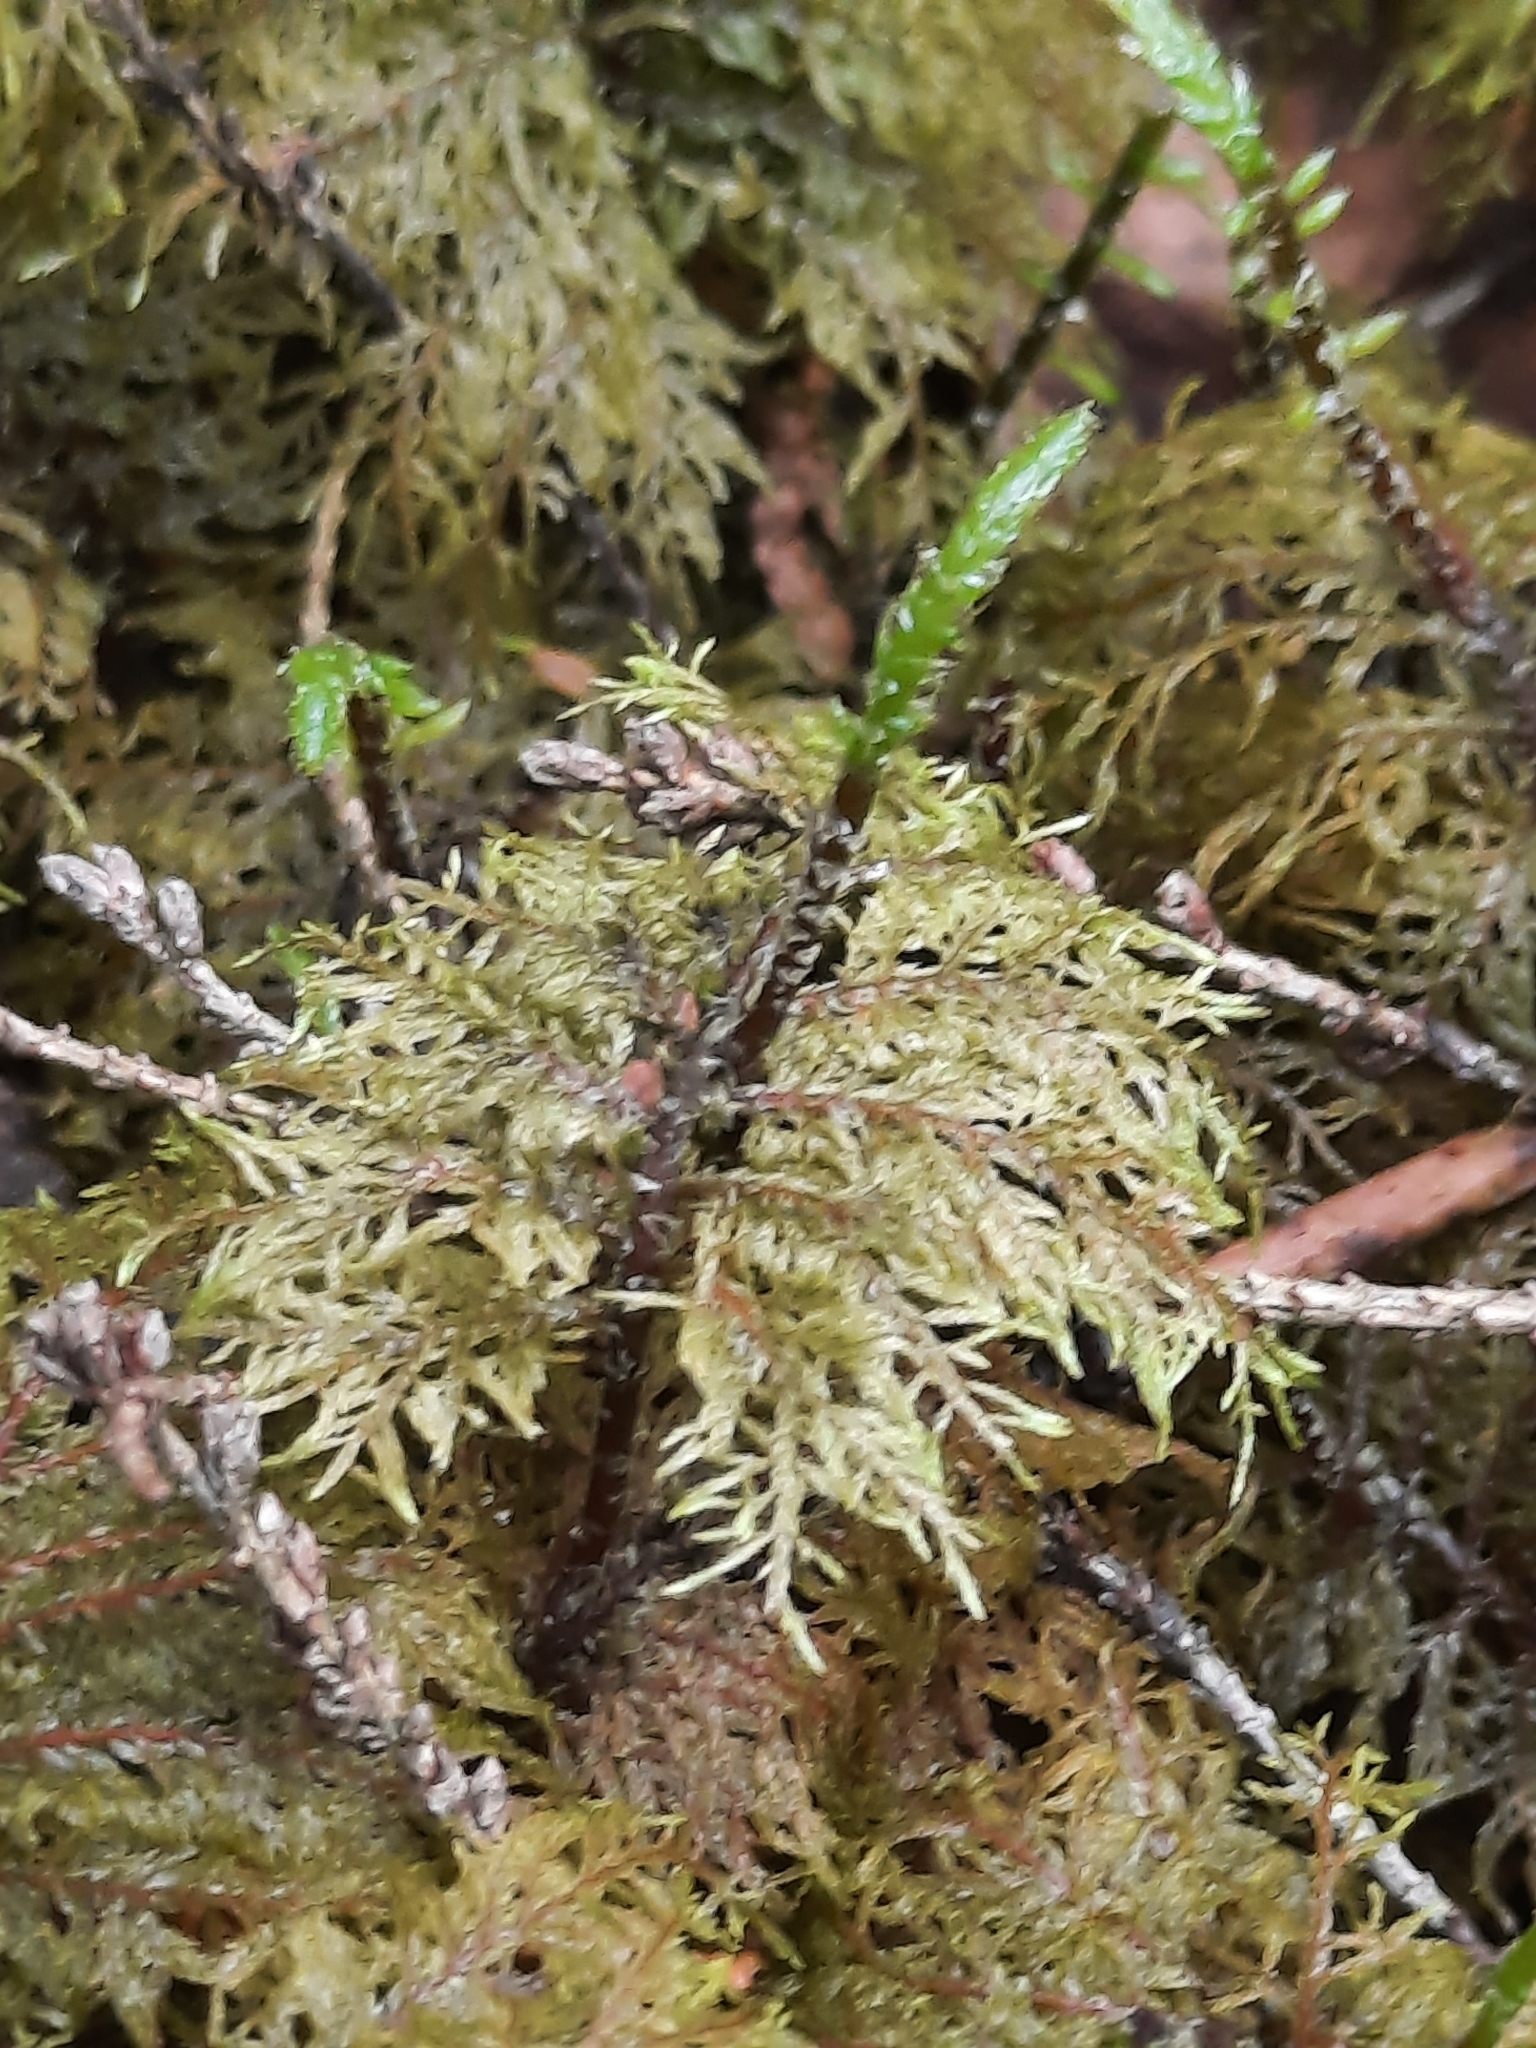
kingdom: Plantae
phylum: Bryophyta
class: Bryopsida
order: Hypnales
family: Hylocomiaceae
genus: Hylocomium
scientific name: Hylocomium splendens
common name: Stairstep moss
